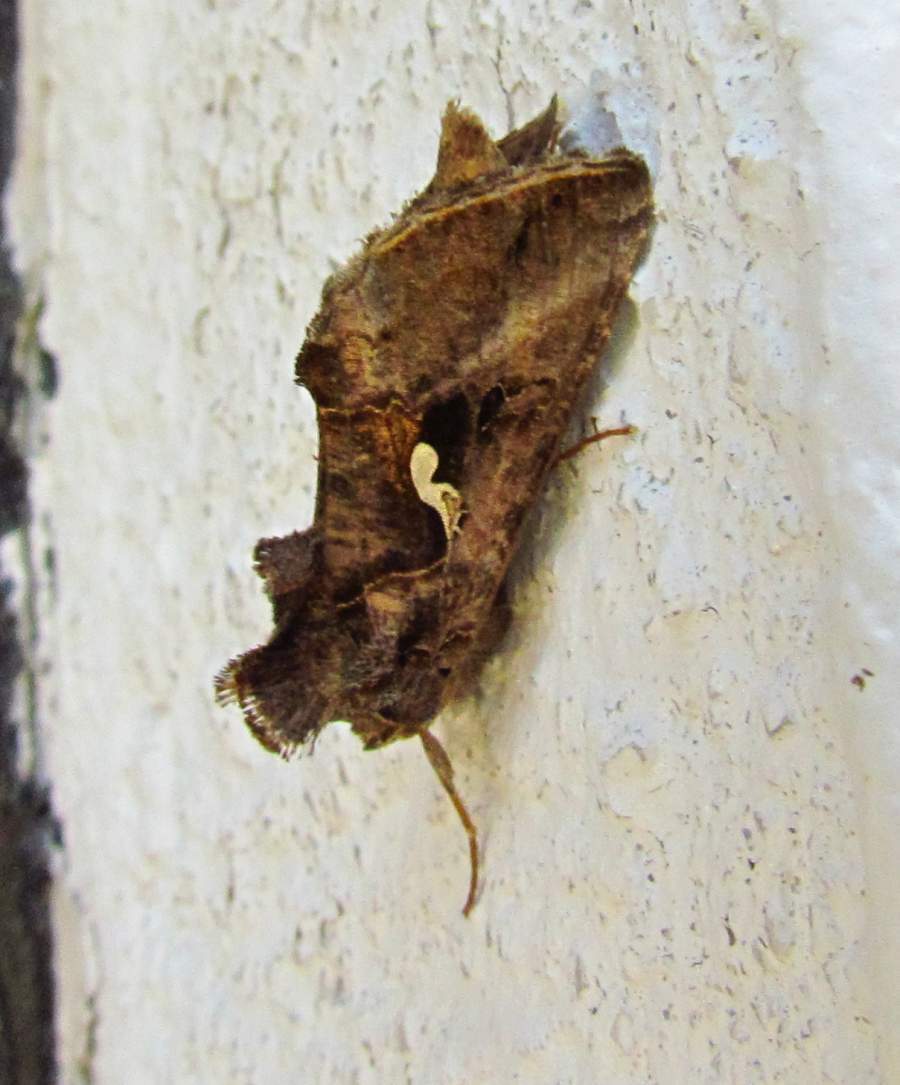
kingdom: Animalia
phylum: Arthropoda
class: Insecta
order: Lepidoptera
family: Noctuidae
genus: Autographa
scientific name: Autographa precationis
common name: Common looper moth
